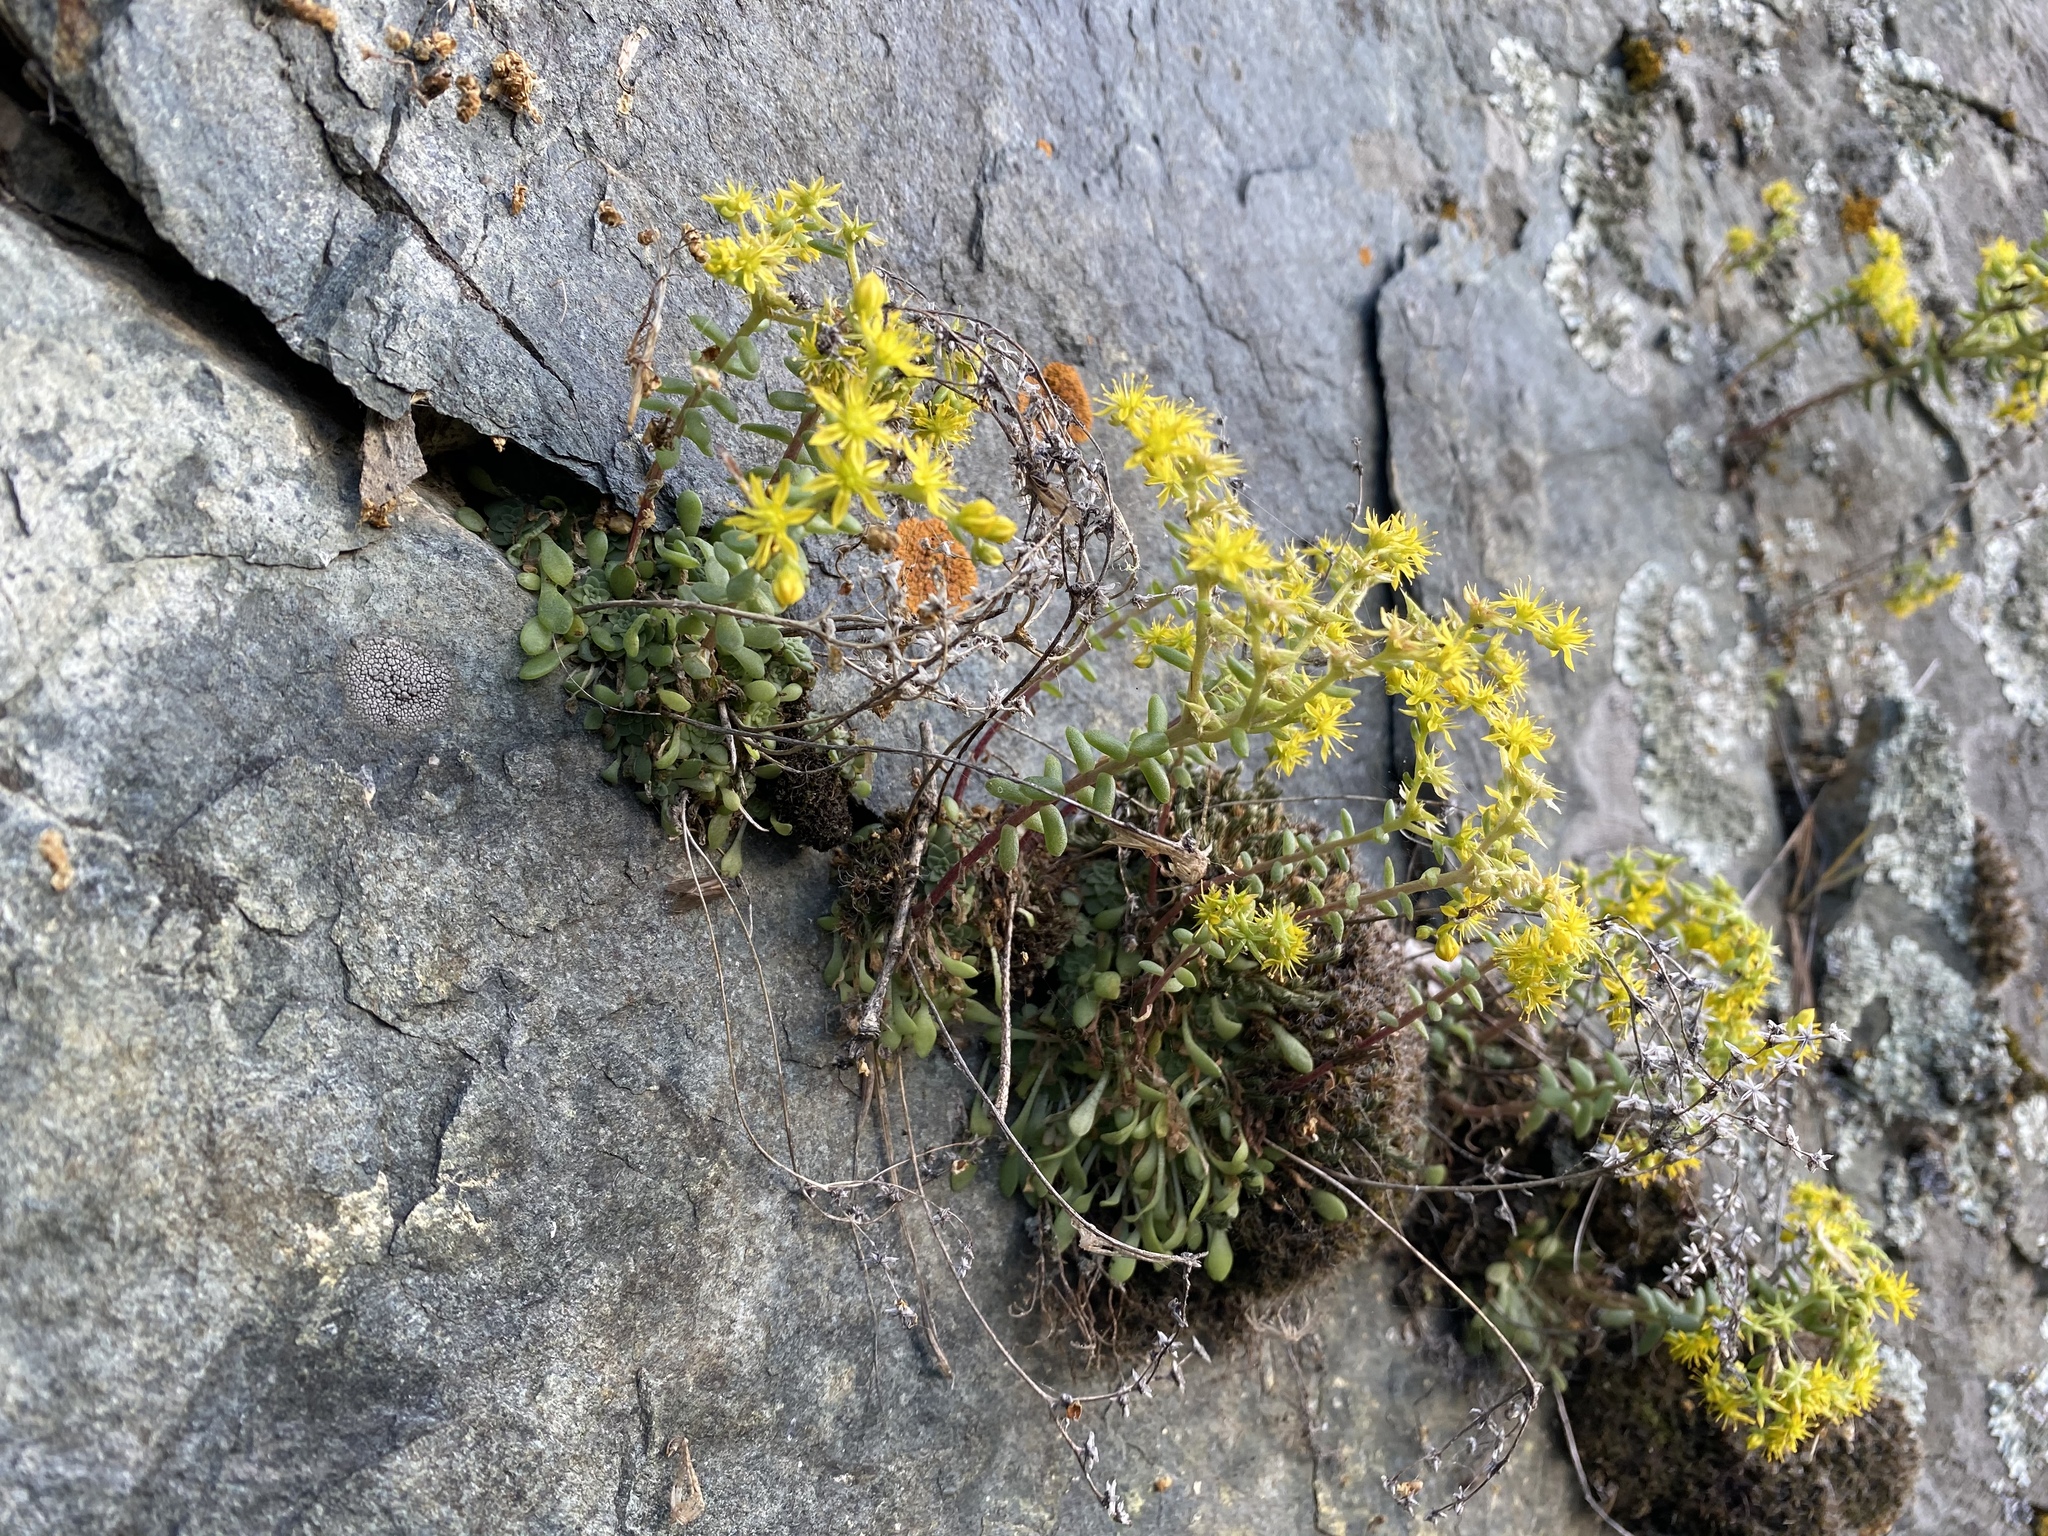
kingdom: Plantae
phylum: Tracheophyta
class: Magnoliopsida
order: Saxifragales
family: Crassulaceae
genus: Sedum
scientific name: Sedum leibergii
